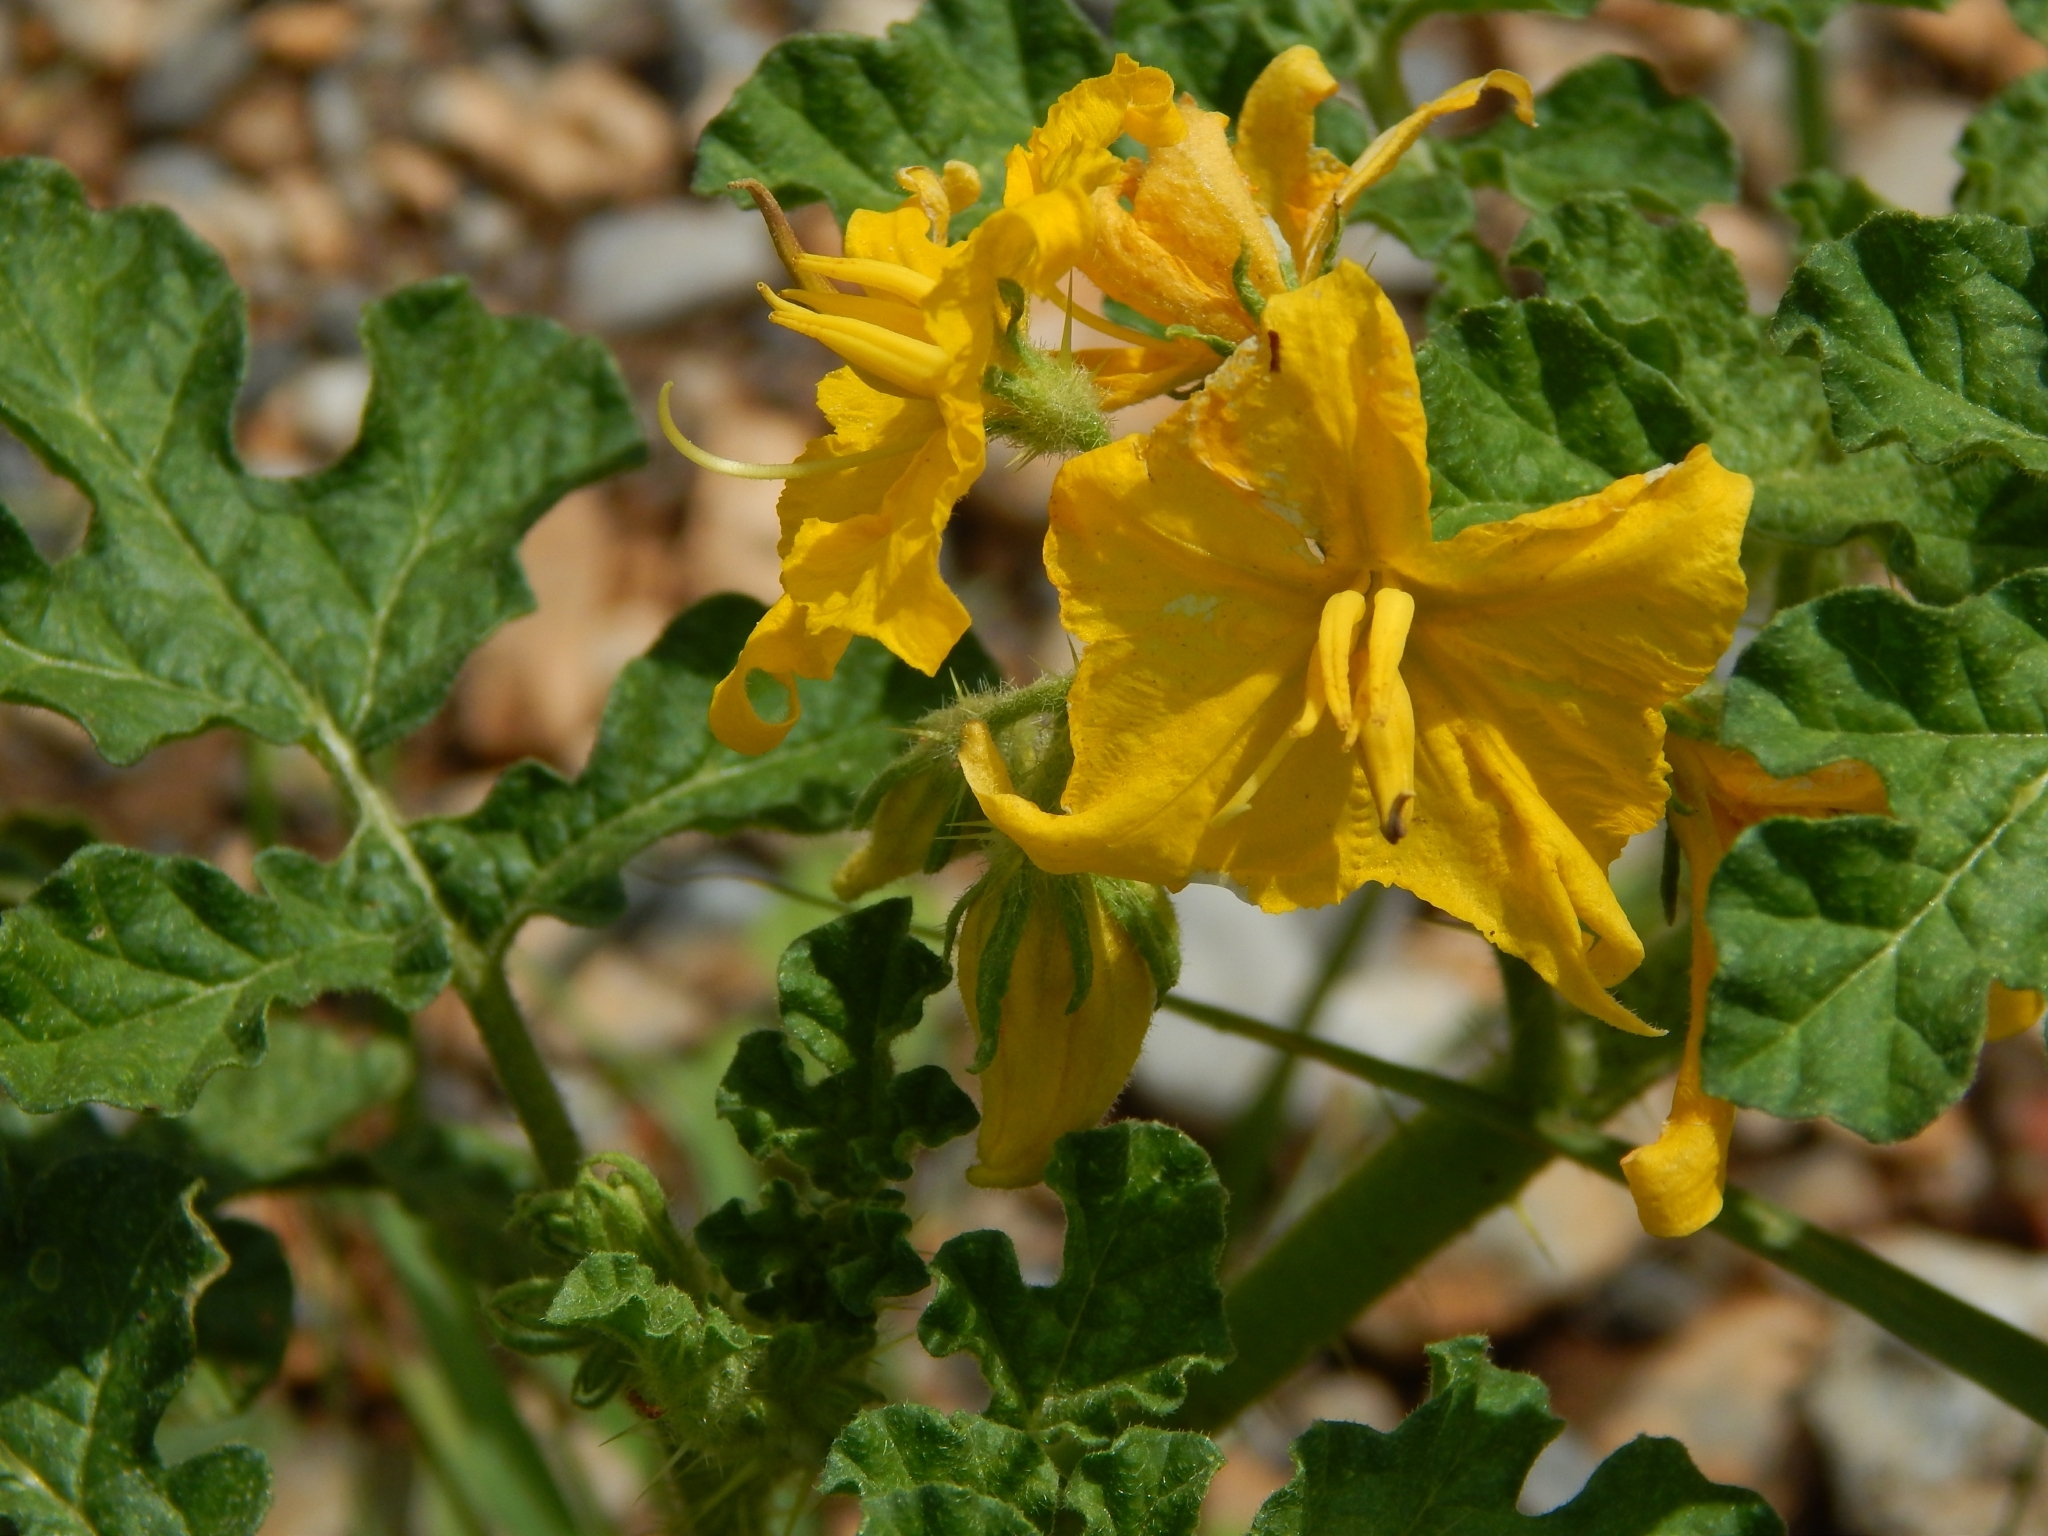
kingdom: Plantae
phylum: Tracheophyta
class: Magnoliopsida
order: Solanales
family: Solanaceae
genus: Solanum
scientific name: Solanum angustifolium
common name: Buffalobur nightshade
